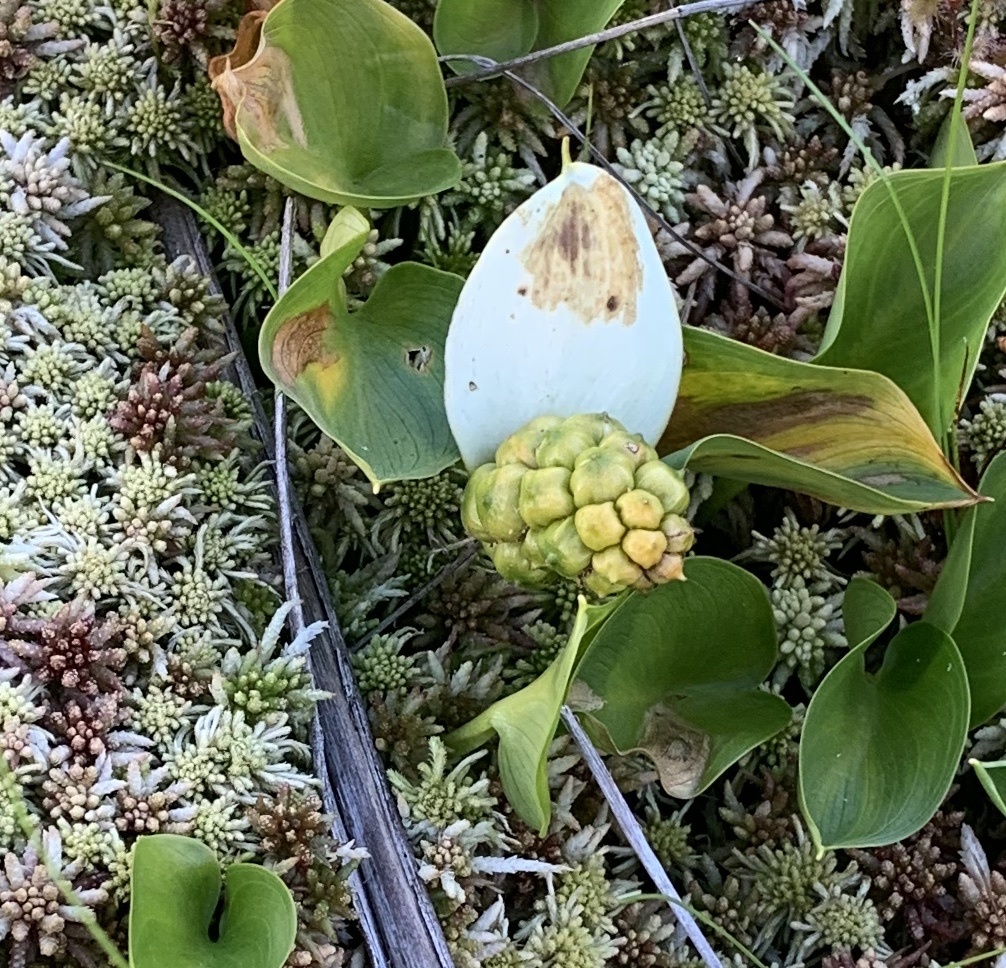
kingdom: Plantae
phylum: Tracheophyta
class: Liliopsida
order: Alismatales
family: Araceae
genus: Calla
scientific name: Calla palustris
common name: Bog arum
